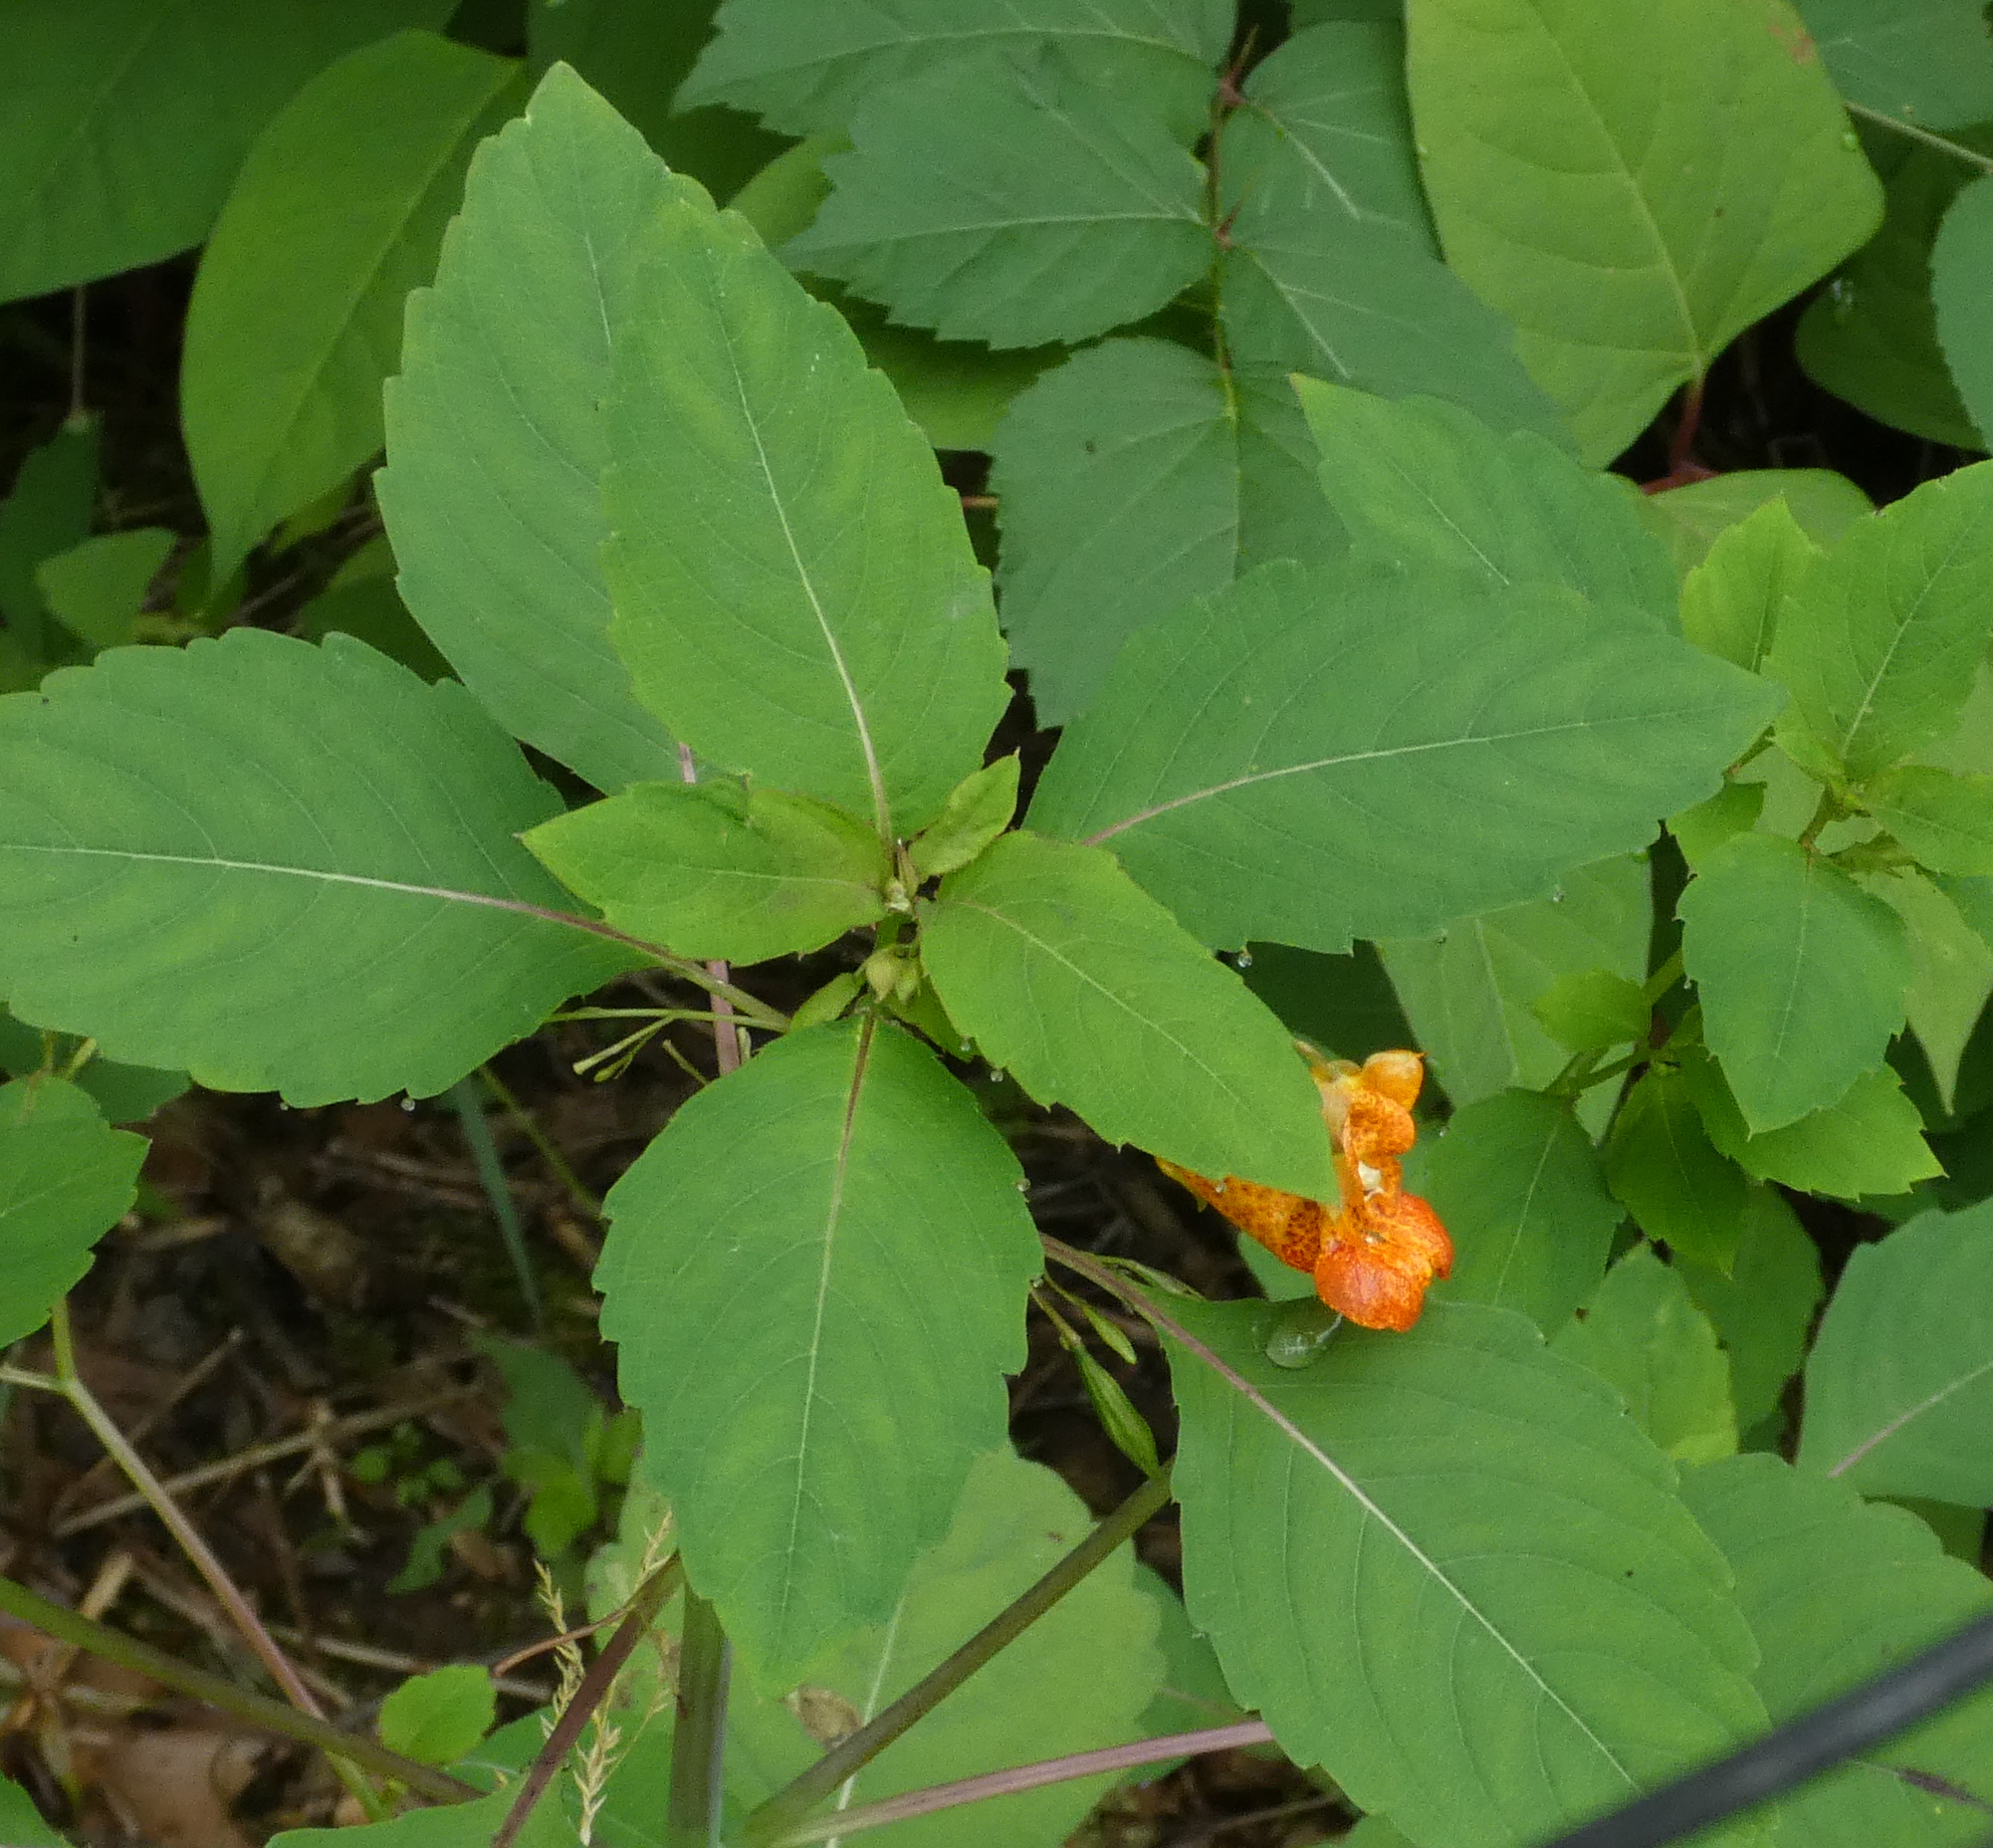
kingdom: Plantae
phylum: Tracheophyta
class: Magnoliopsida
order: Ericales
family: Balsaminaceae
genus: Impatiens
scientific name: Impatiens capensis
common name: Orange balsam
